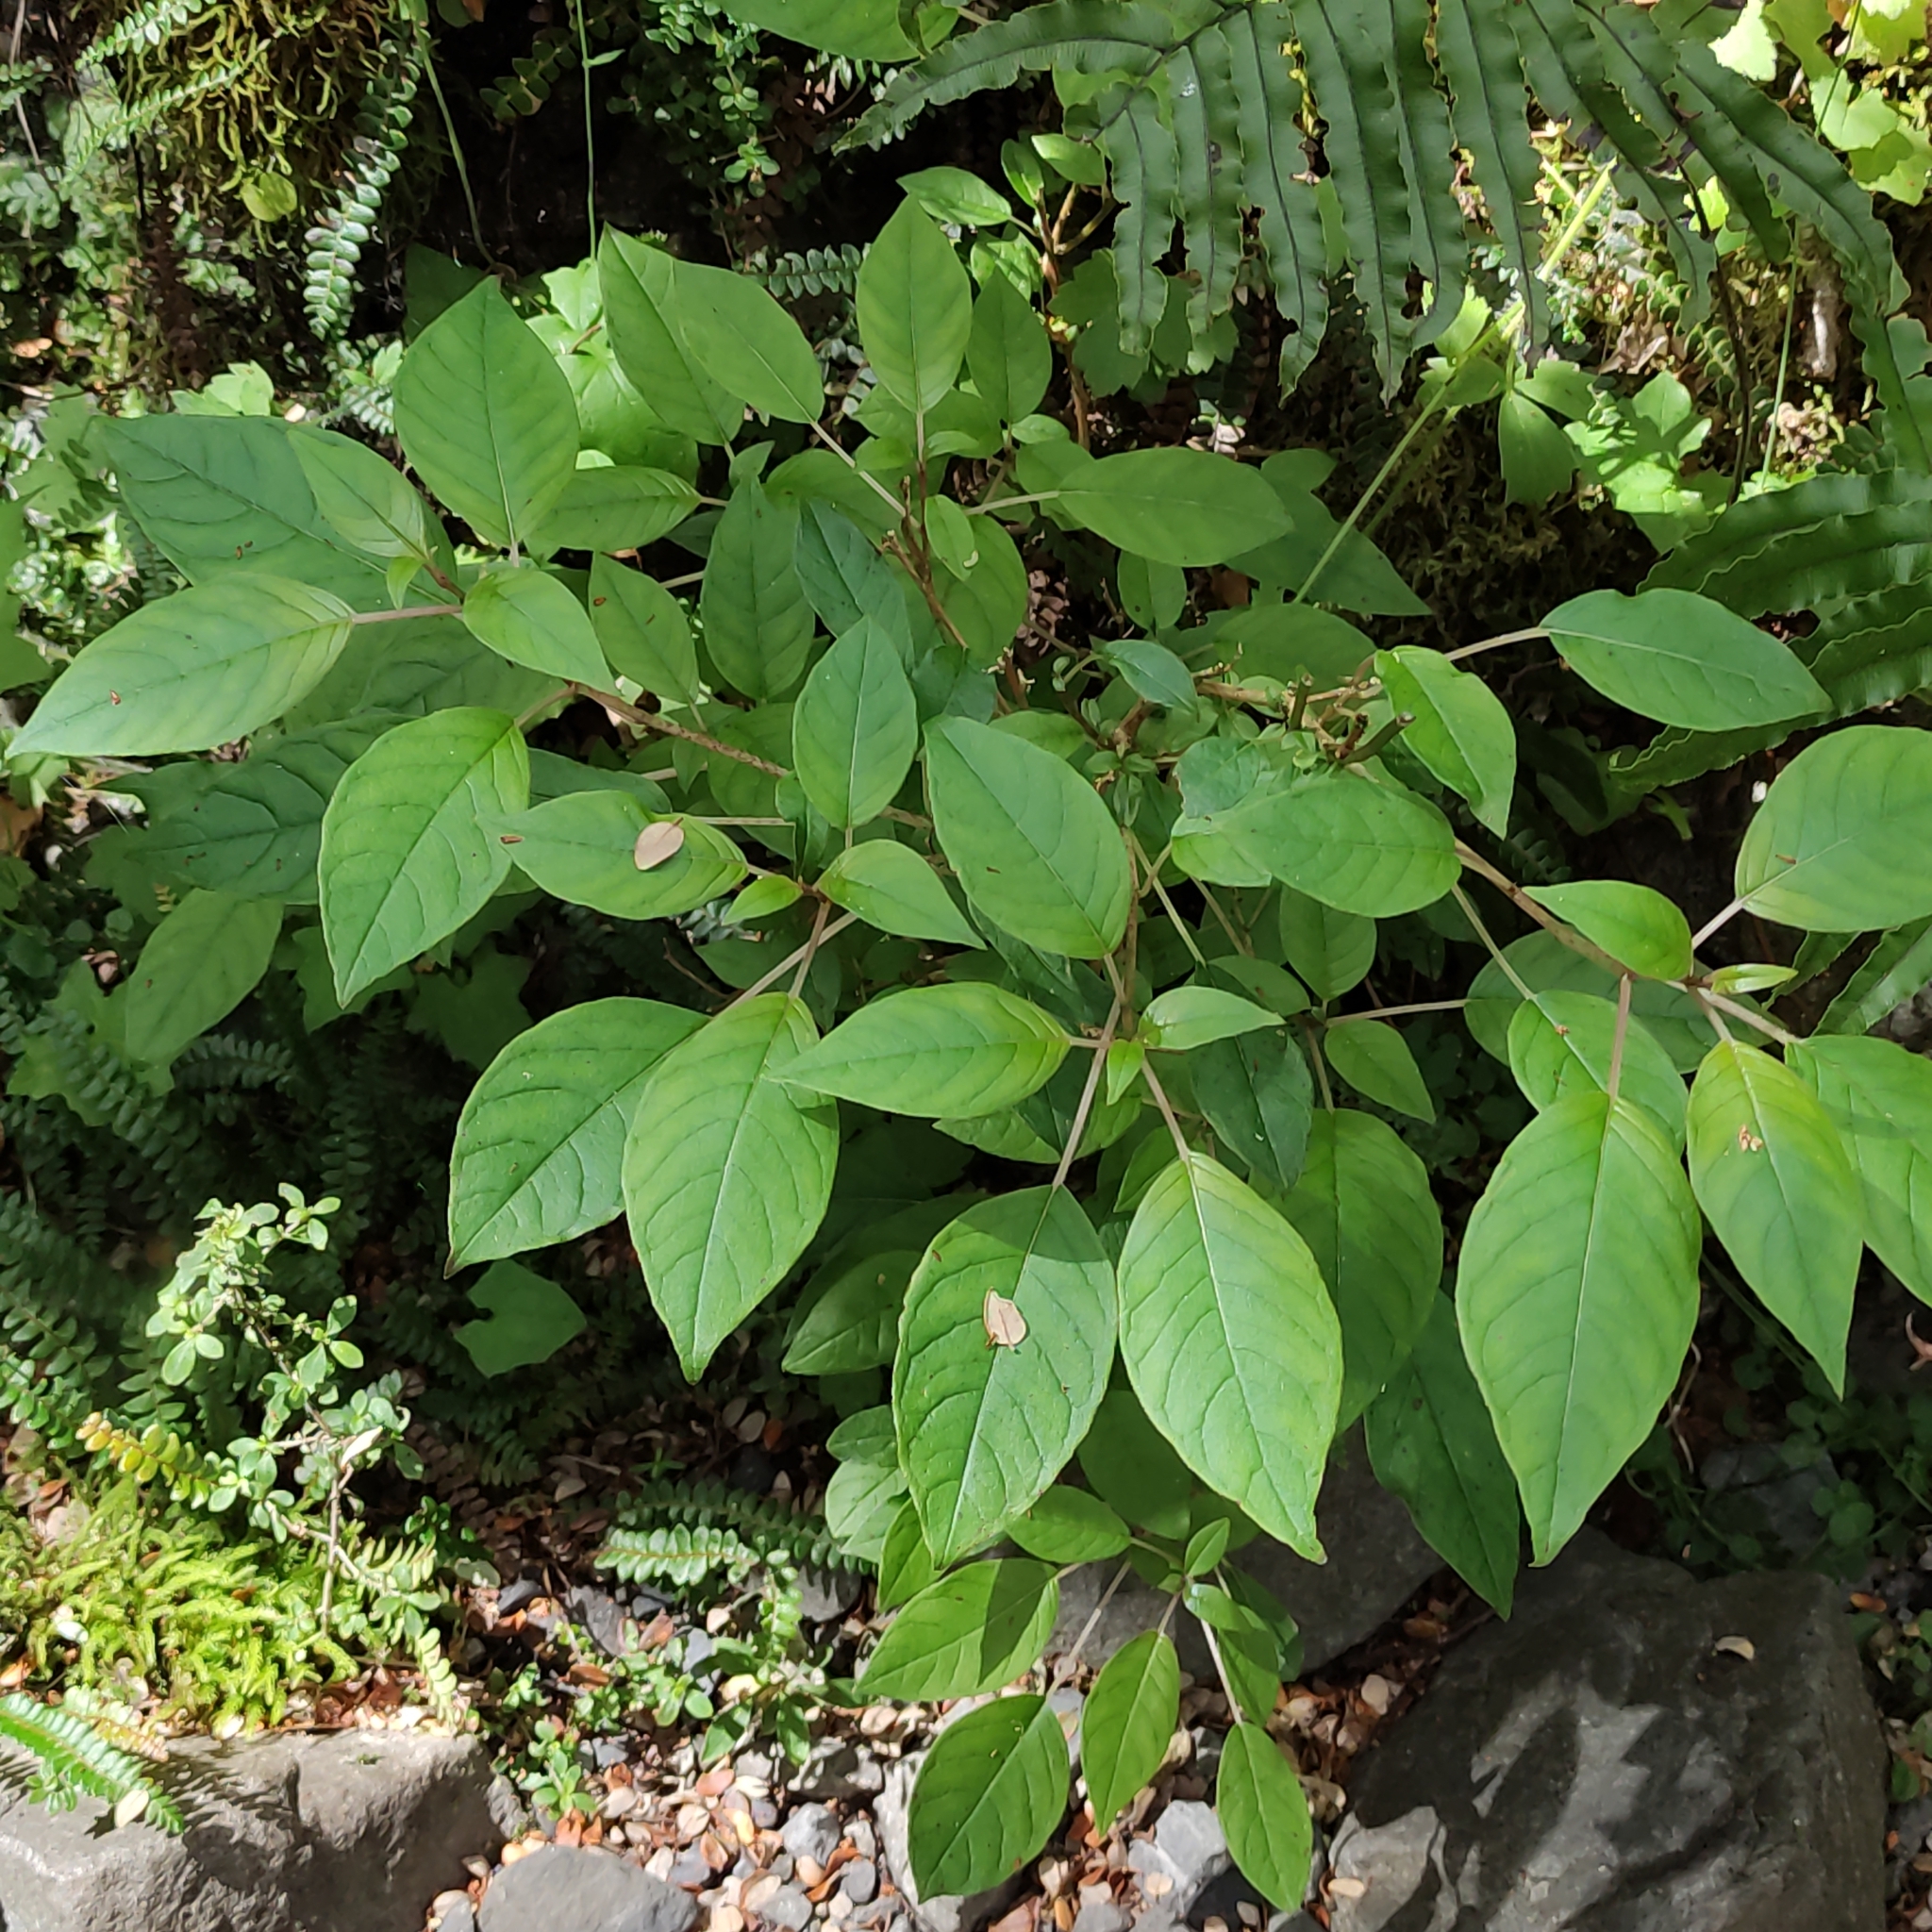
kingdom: Plantae
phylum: Tracheophyta
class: Magnoliopsida
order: Myrtales
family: Onagraceae
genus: Fuchsia
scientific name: Fuchsia excorticata
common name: Tree fuchsia
